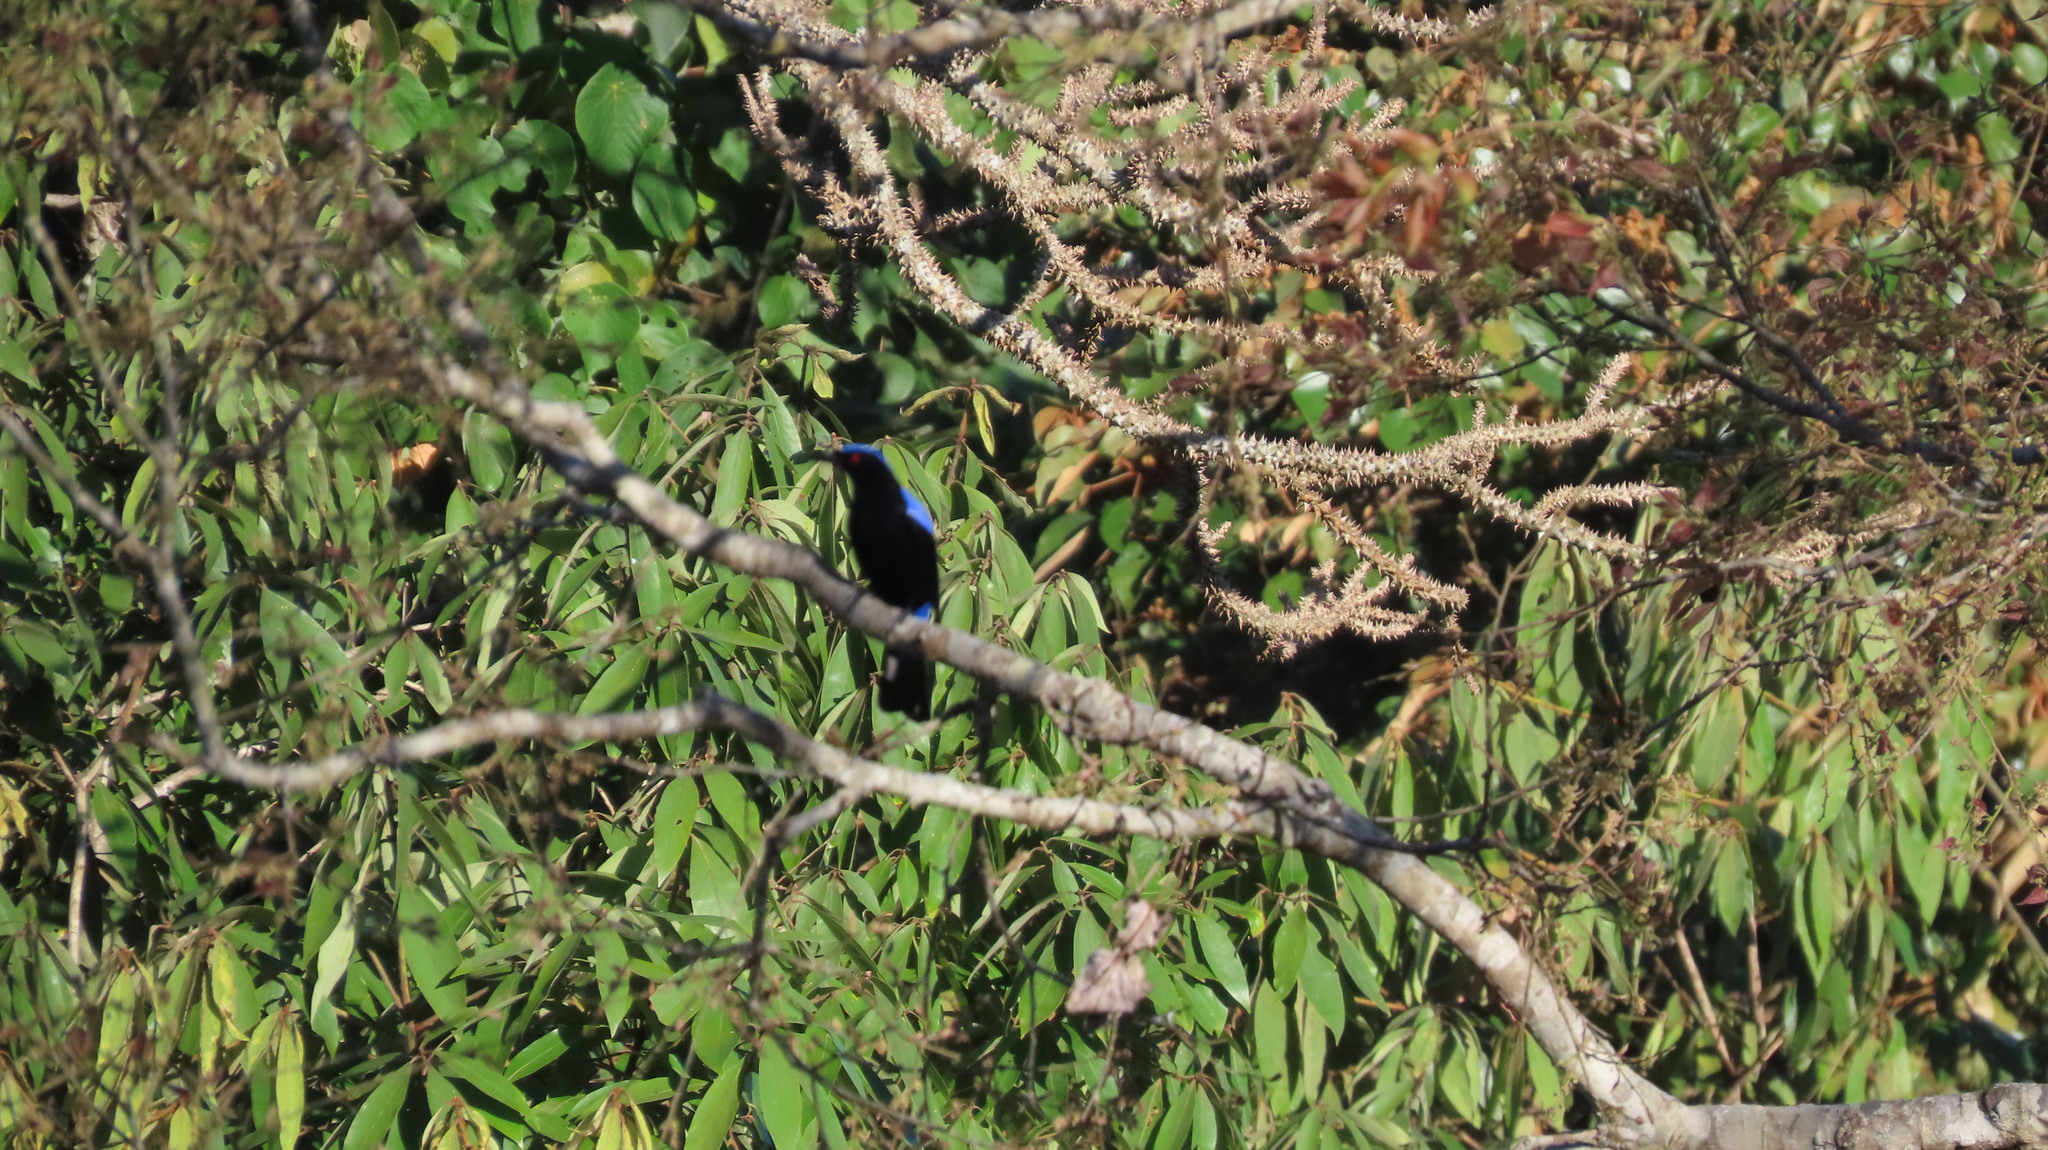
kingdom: Animalia
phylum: Chordata
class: Aves
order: Passeriformes
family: Irenidae
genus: Irena
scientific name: Irena puella
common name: Asian fairy-bluebird
